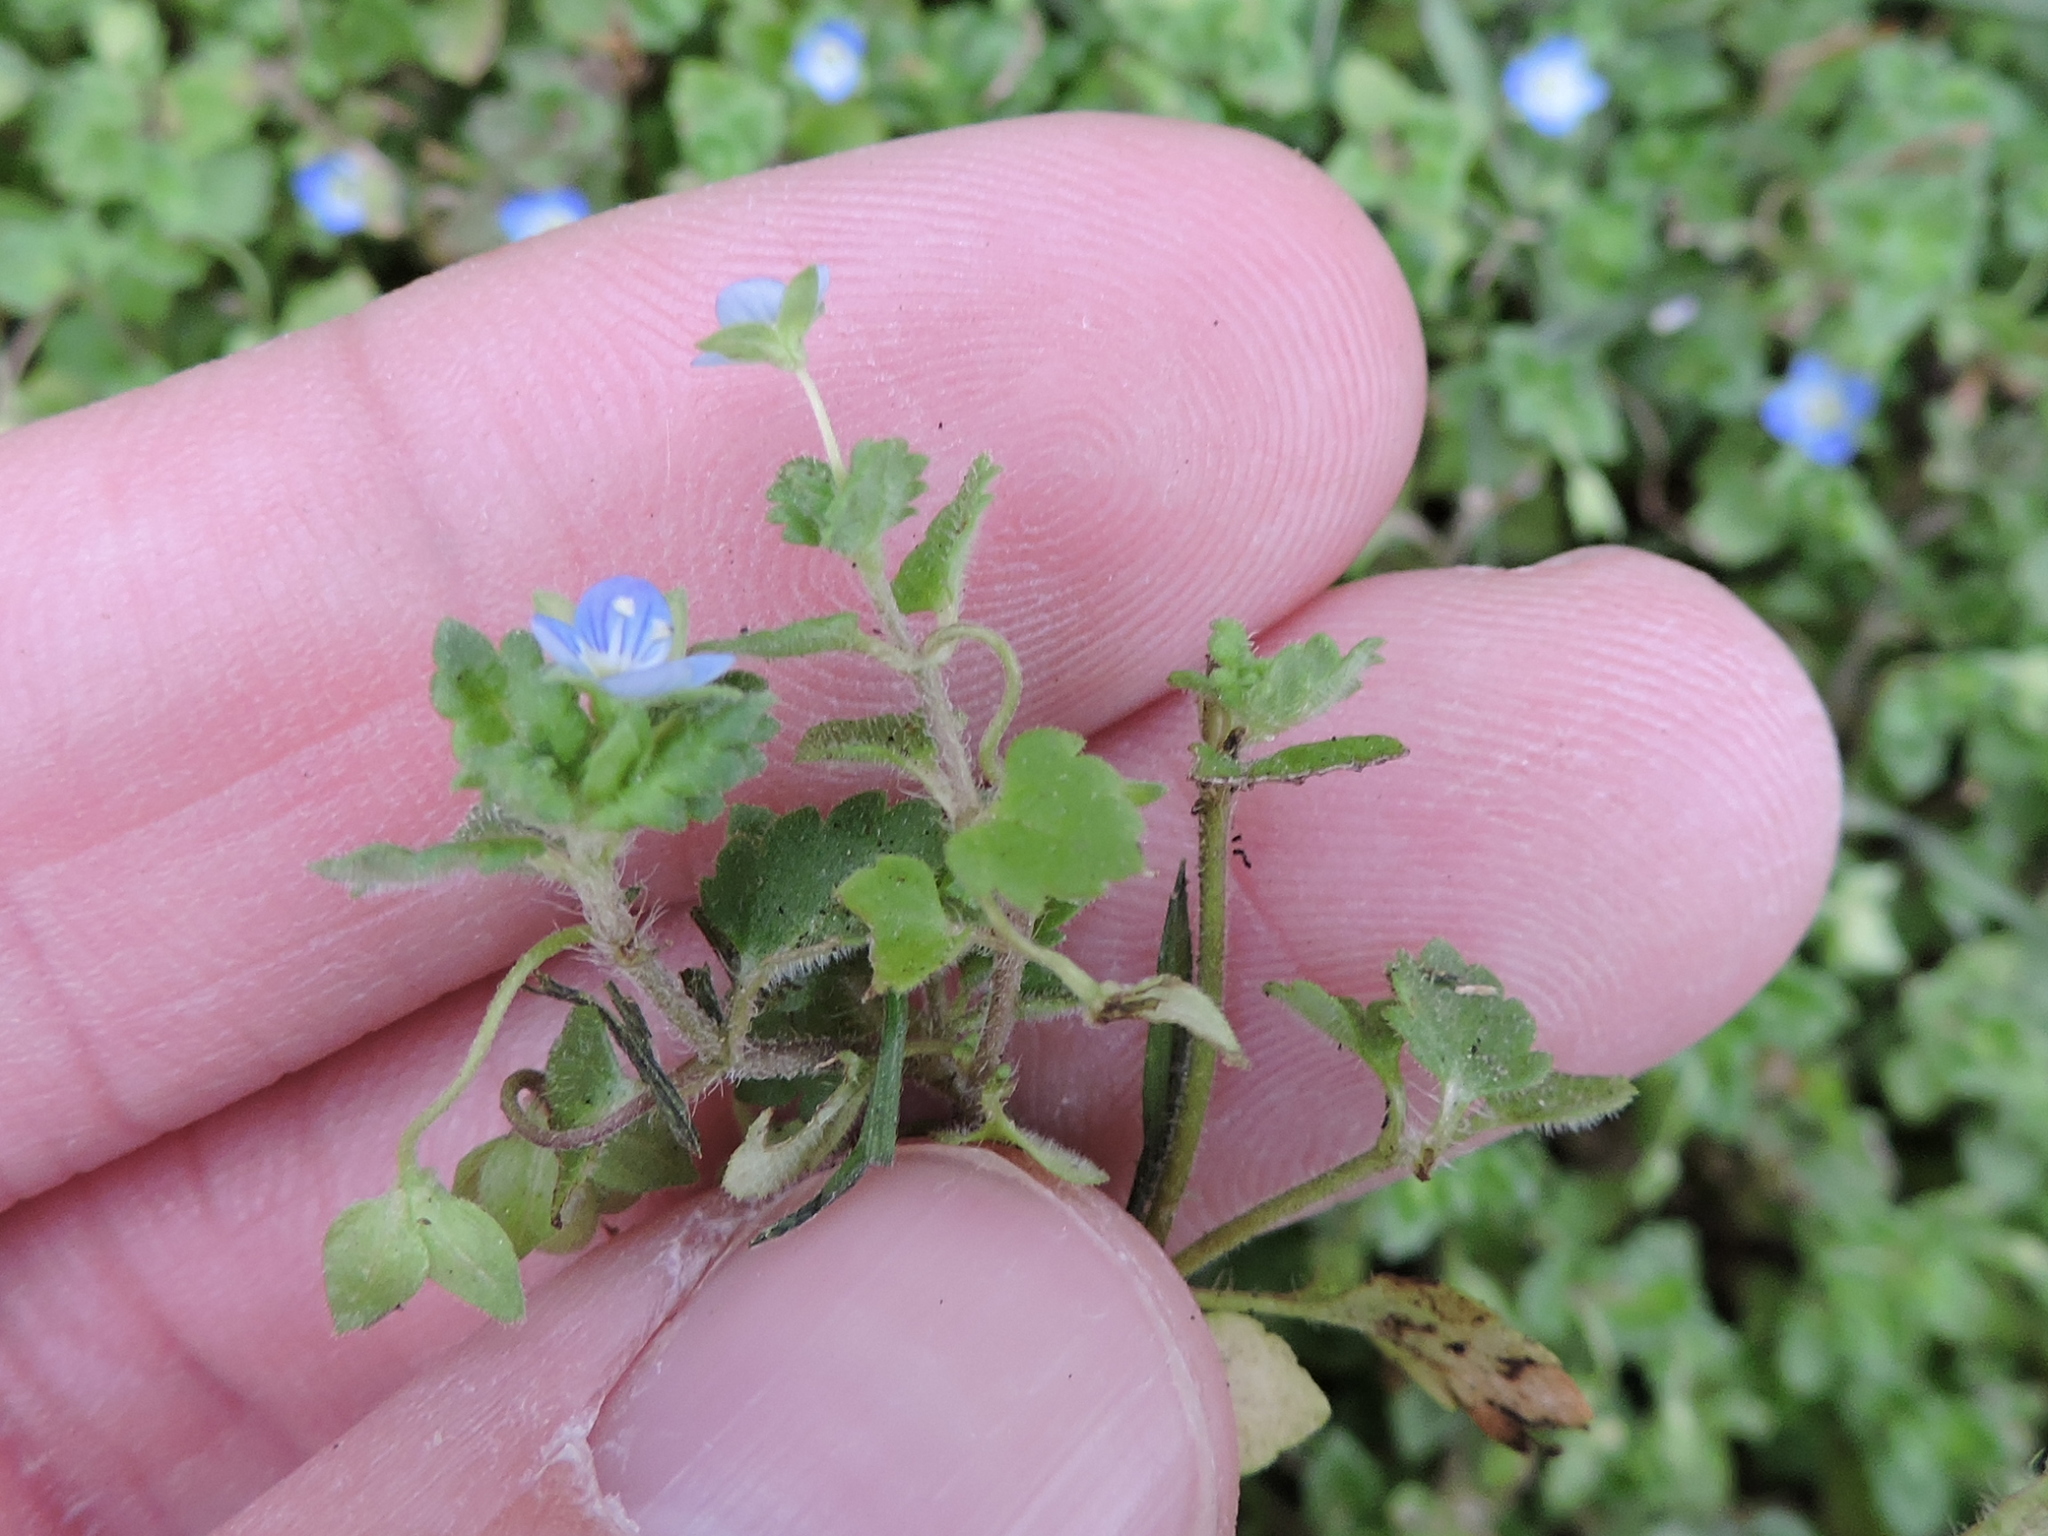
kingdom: Plantae
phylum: Tracheophyta
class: Magnoliopsida
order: Lamiales
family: Plantaginaceae
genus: Veronica
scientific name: Veronica polita
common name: Grey field-speedwell
